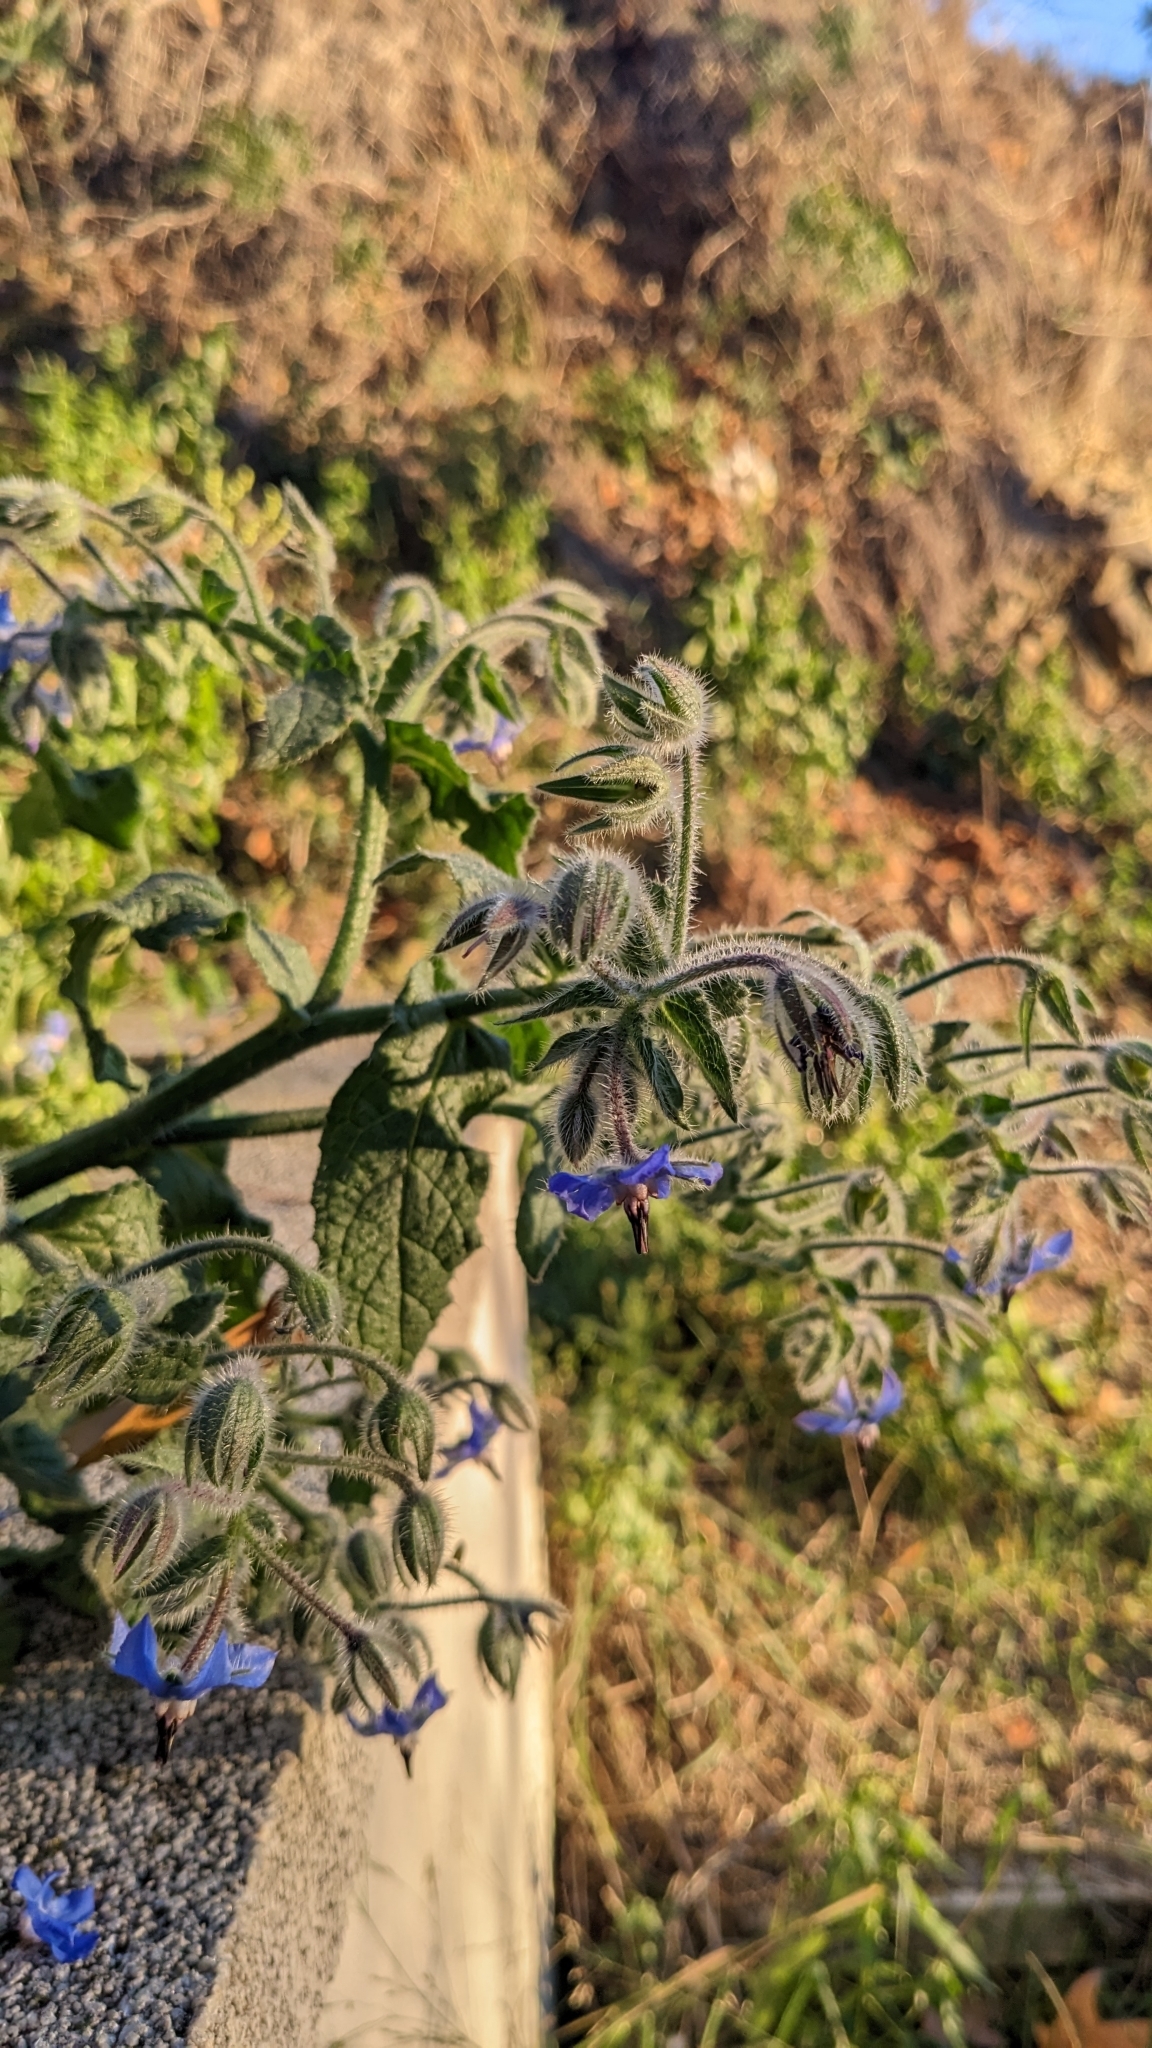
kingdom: Plantae
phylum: Tracheophyta
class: Magnoliopsida
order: Boraginales
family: Boraginaceae
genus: Borago
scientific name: Borago officinalis
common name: Borage
